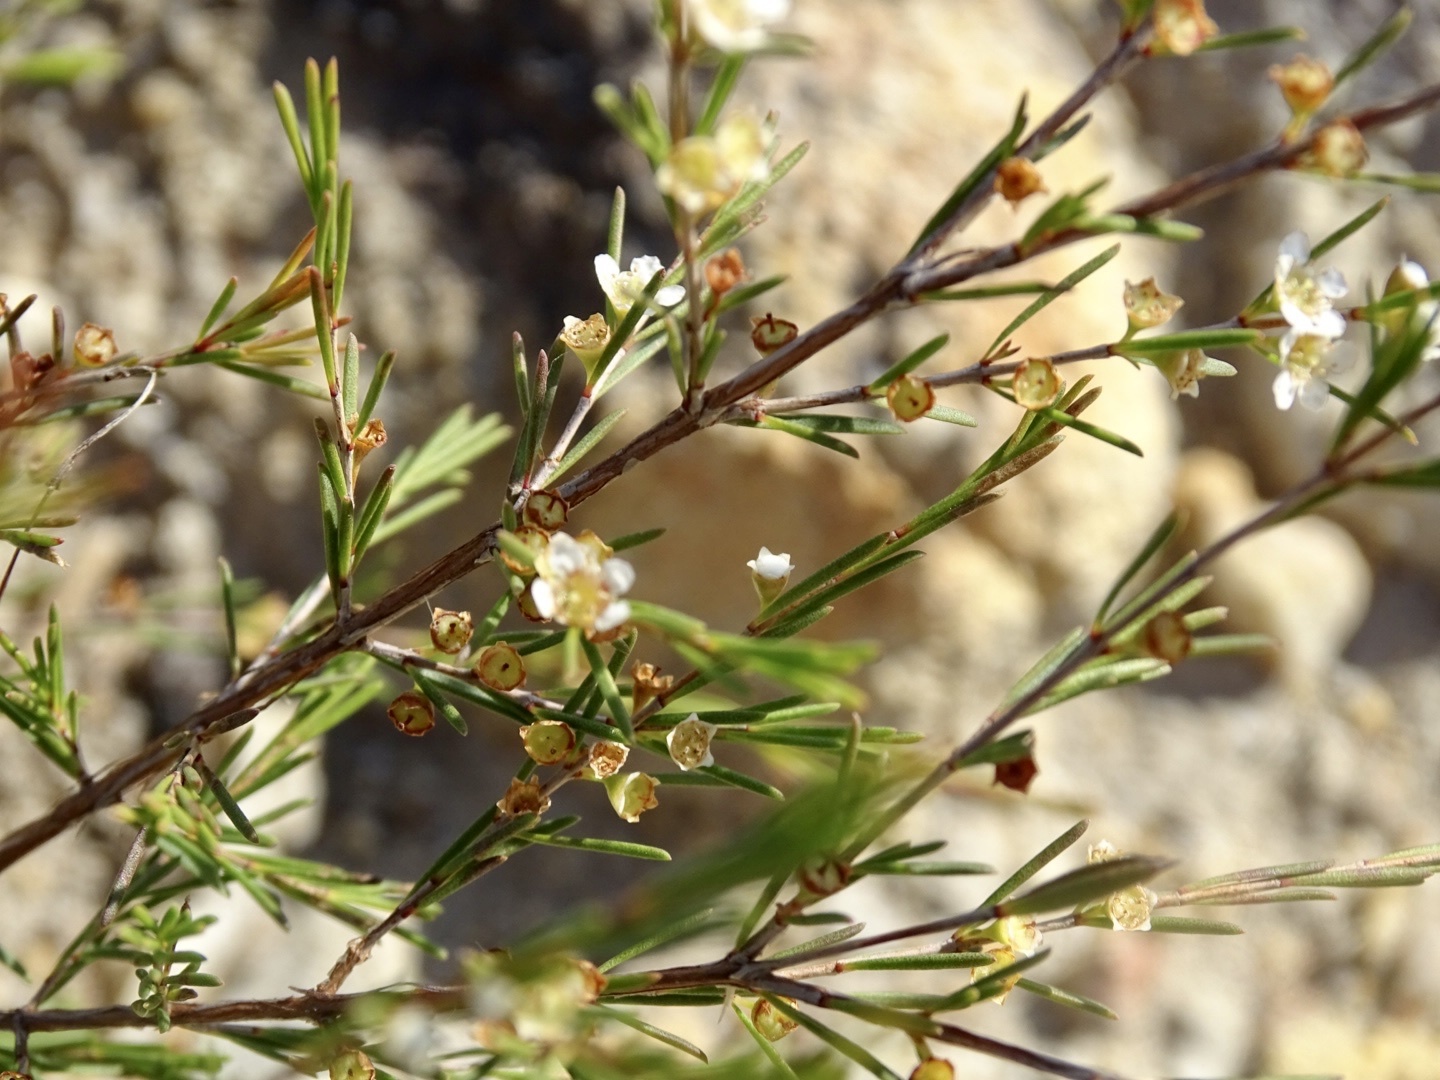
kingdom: Plantae
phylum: Tracheophyta
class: Magnoliopsida
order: Myrtales
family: Myrtaceae
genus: Baeckea
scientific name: Baeckea frutescens
